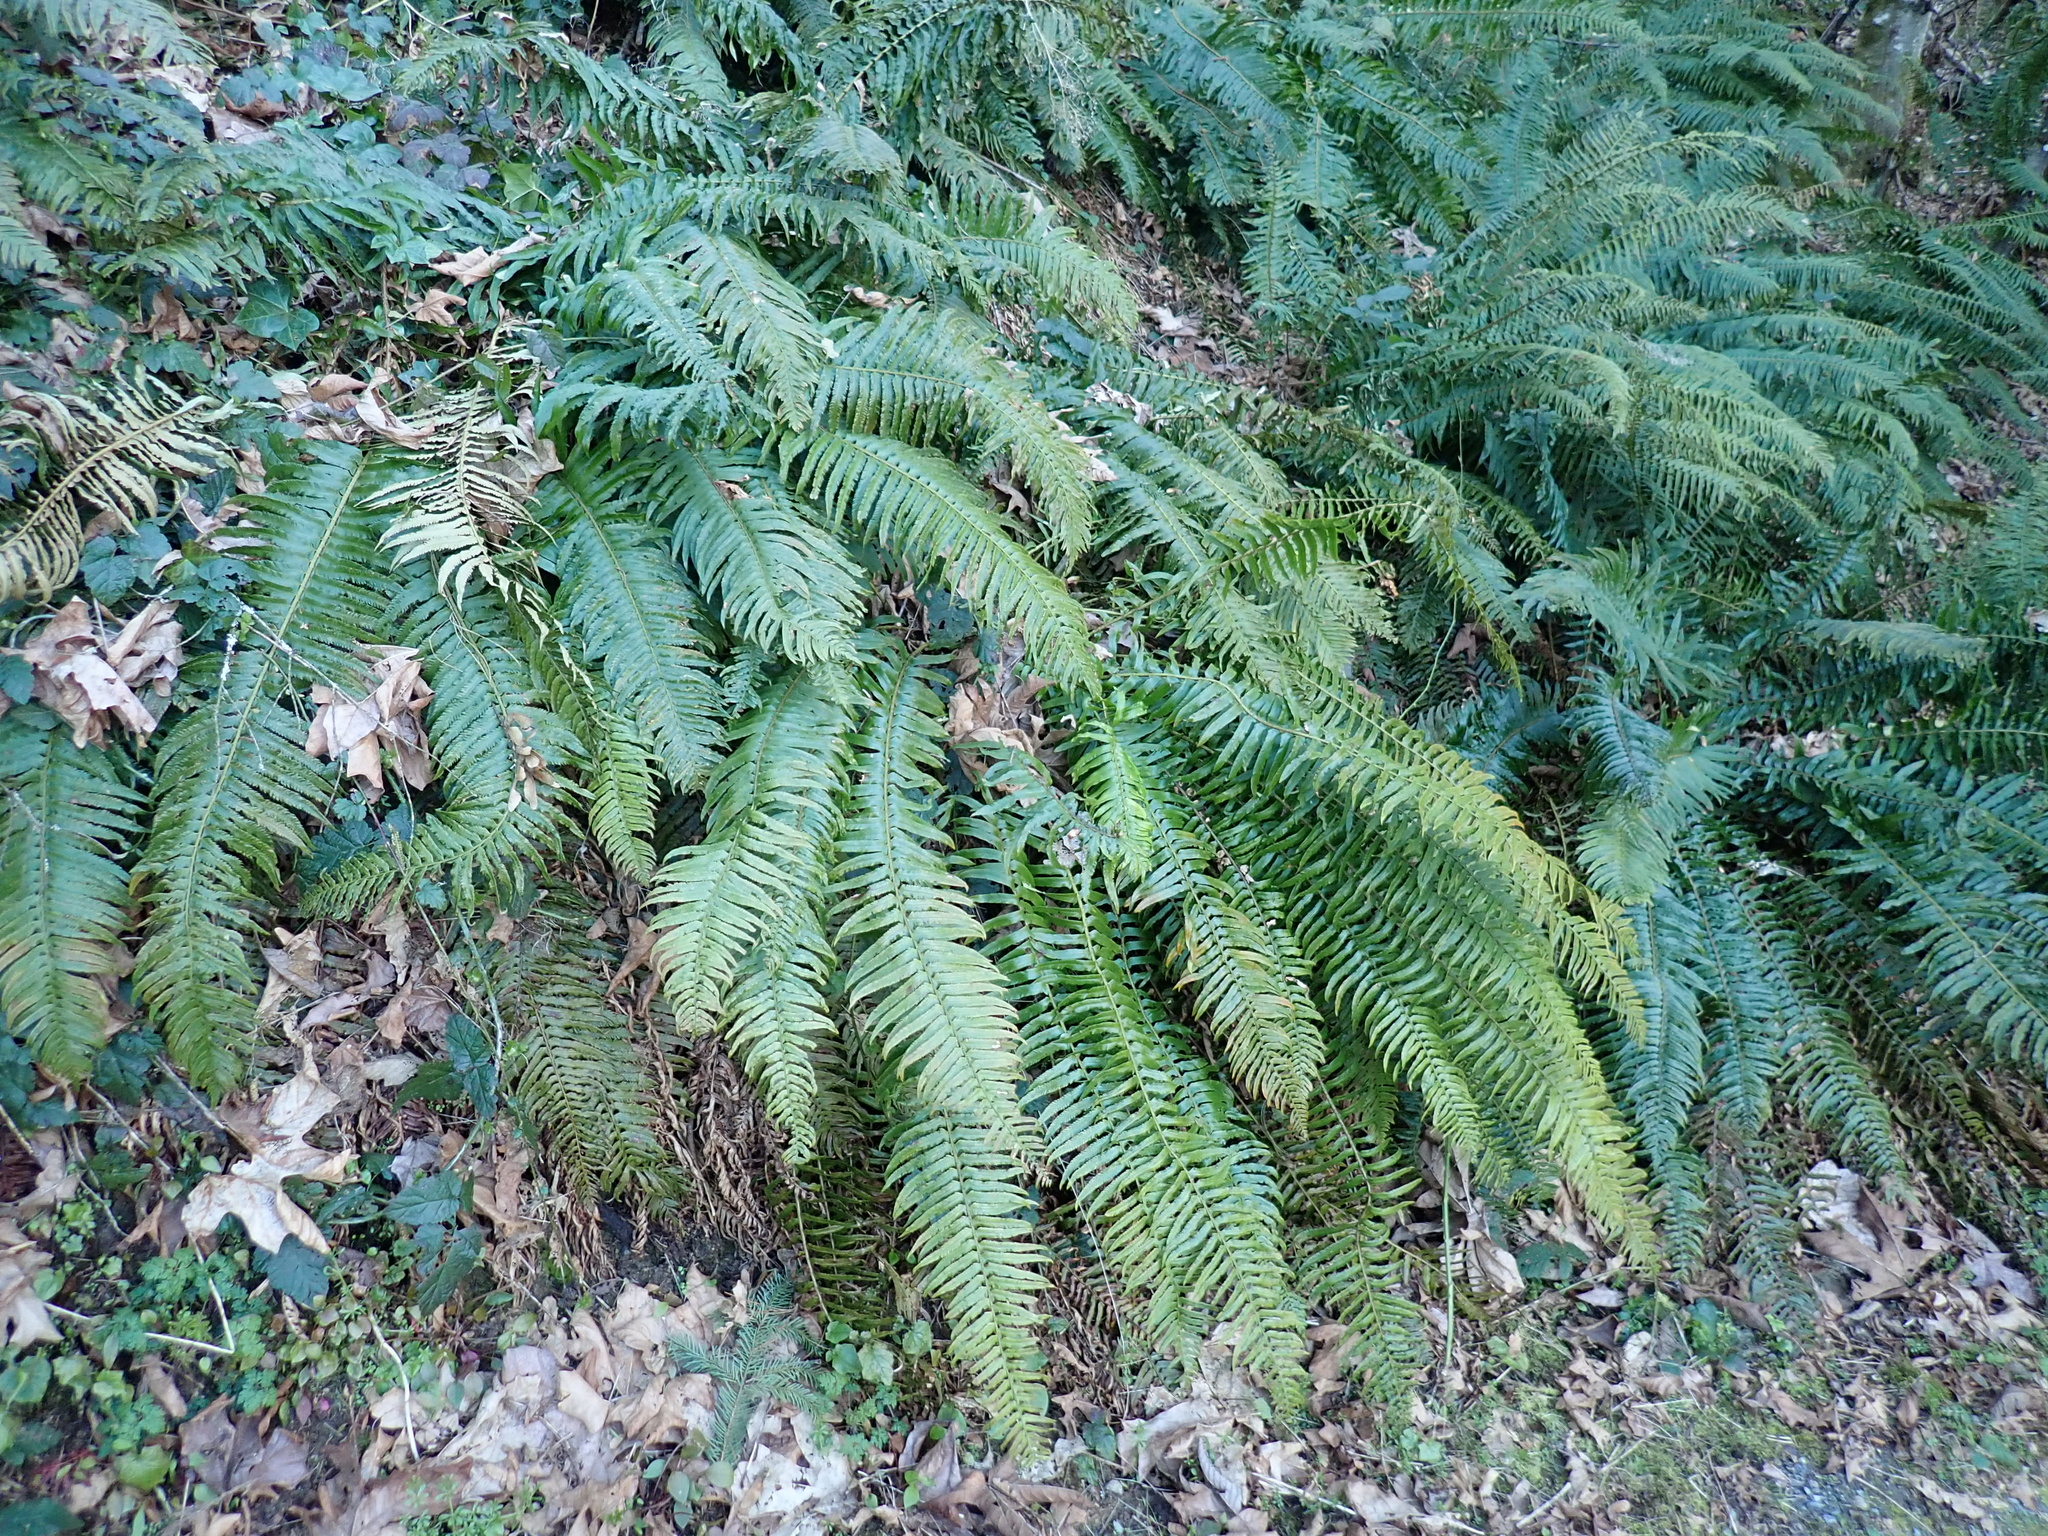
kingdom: Plantae
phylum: Tracheophyta
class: Polypodiopsida
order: Polypodiales
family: Dryopteridaceae
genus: Polystichum
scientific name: Polystichum munitum
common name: Western sword-fern
